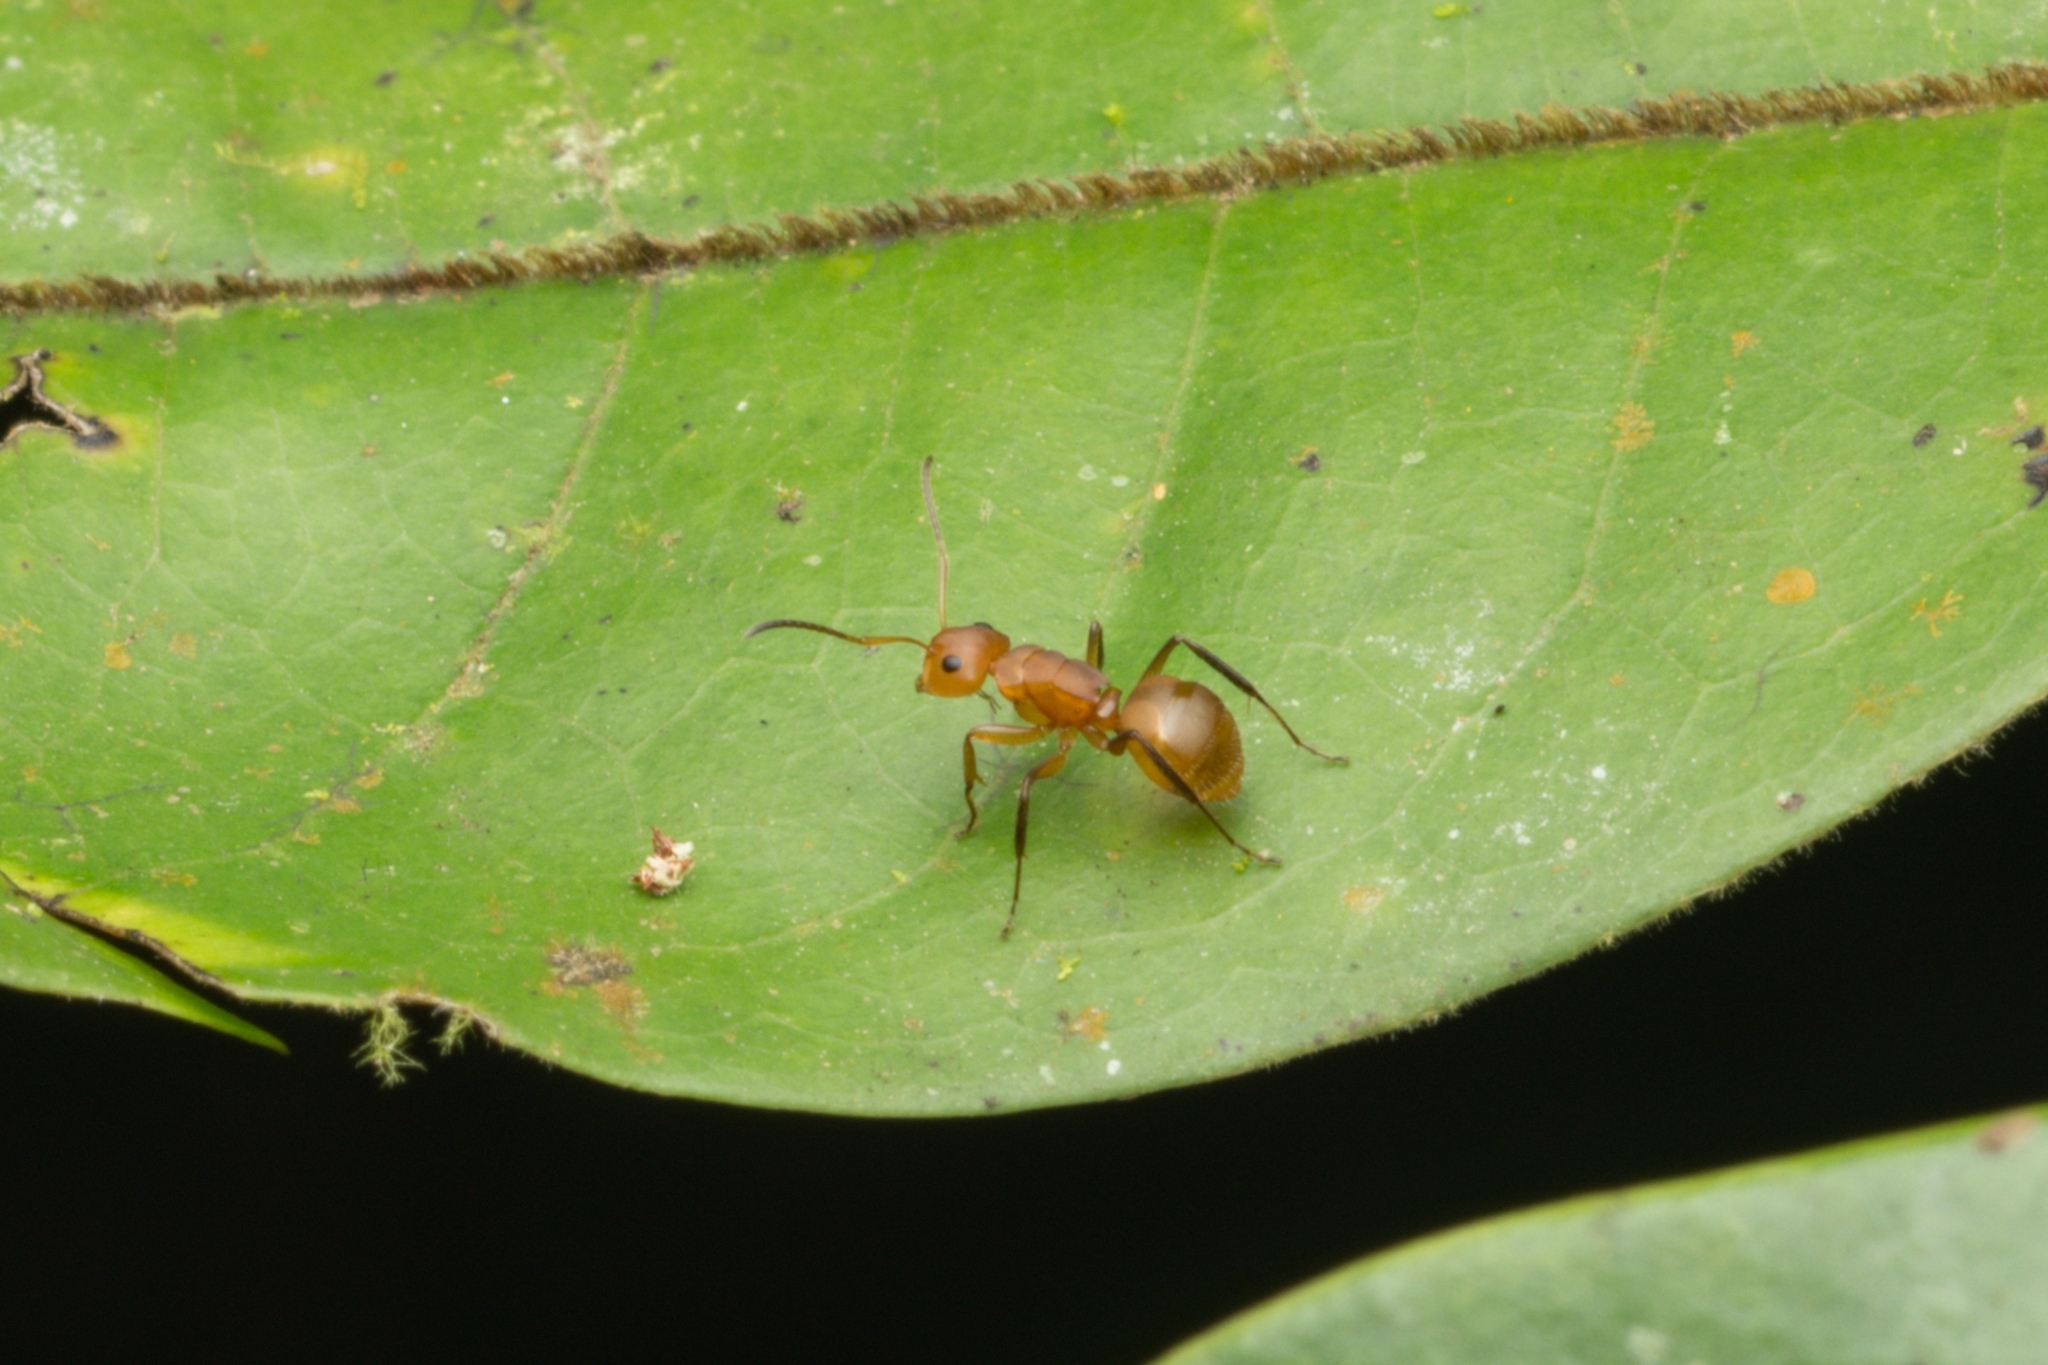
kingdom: Animalia
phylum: Arthropoda
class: Insecta
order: Hymenoptera
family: Formicidae
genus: Camponotus
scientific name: Camponotus latangulus
